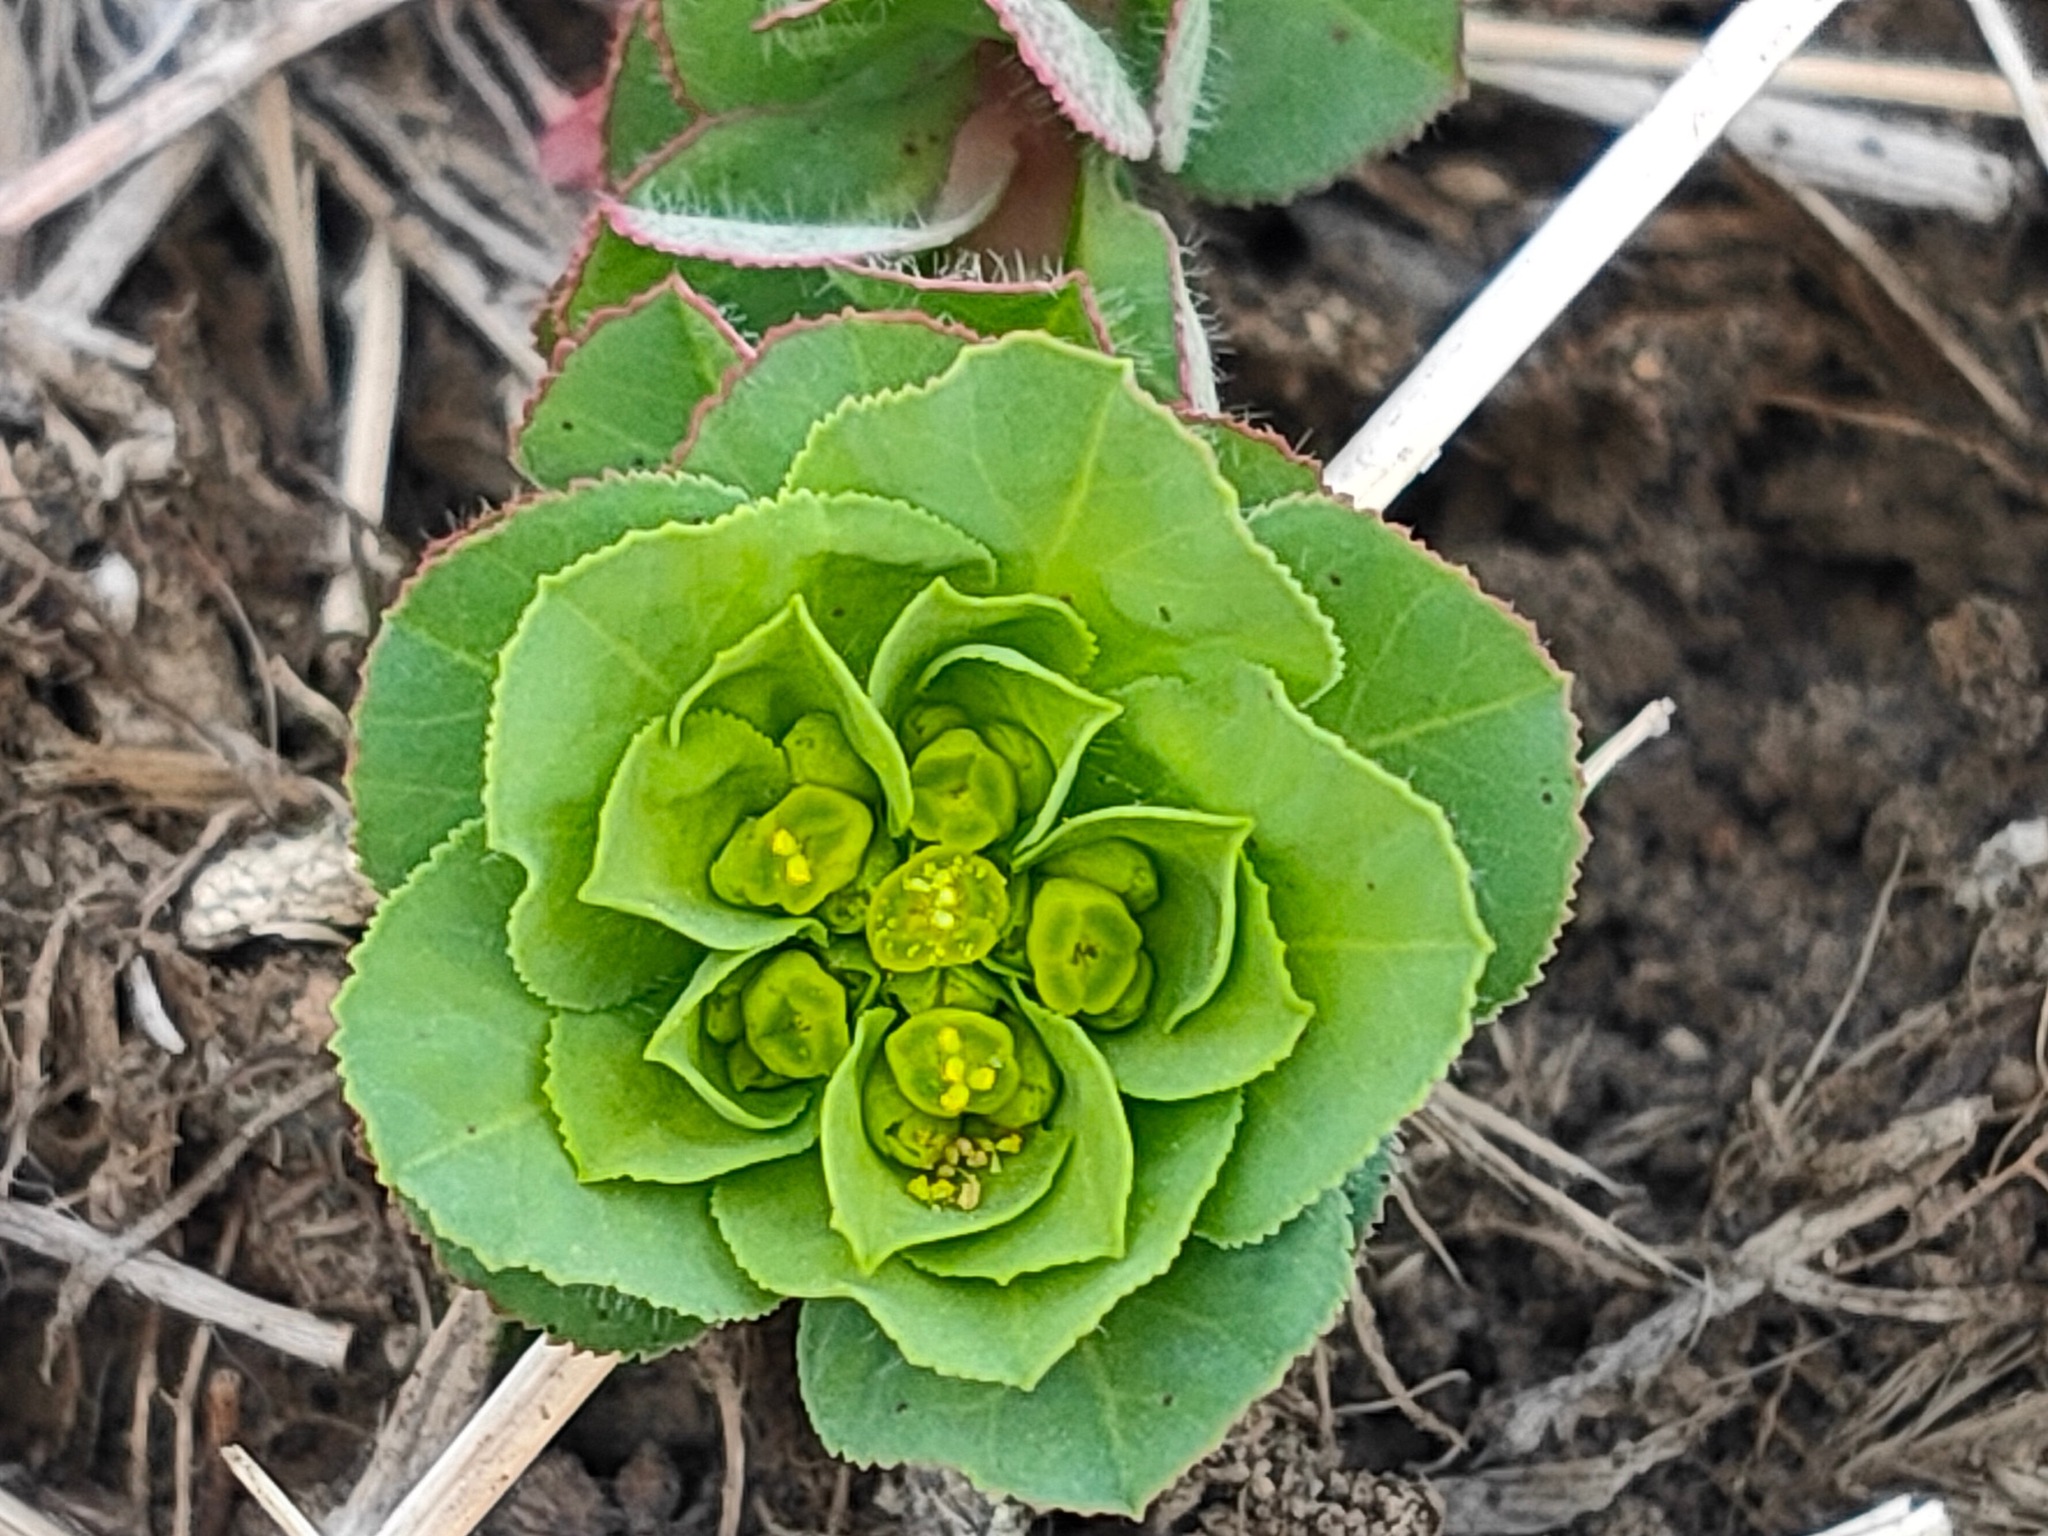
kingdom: Plantae
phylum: Tracheophyta
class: Magnoliopsida
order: Malpighiales
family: Euphorbiaceae
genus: Euphorbia
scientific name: Euphorbia helioscopia
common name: Sun spurge
